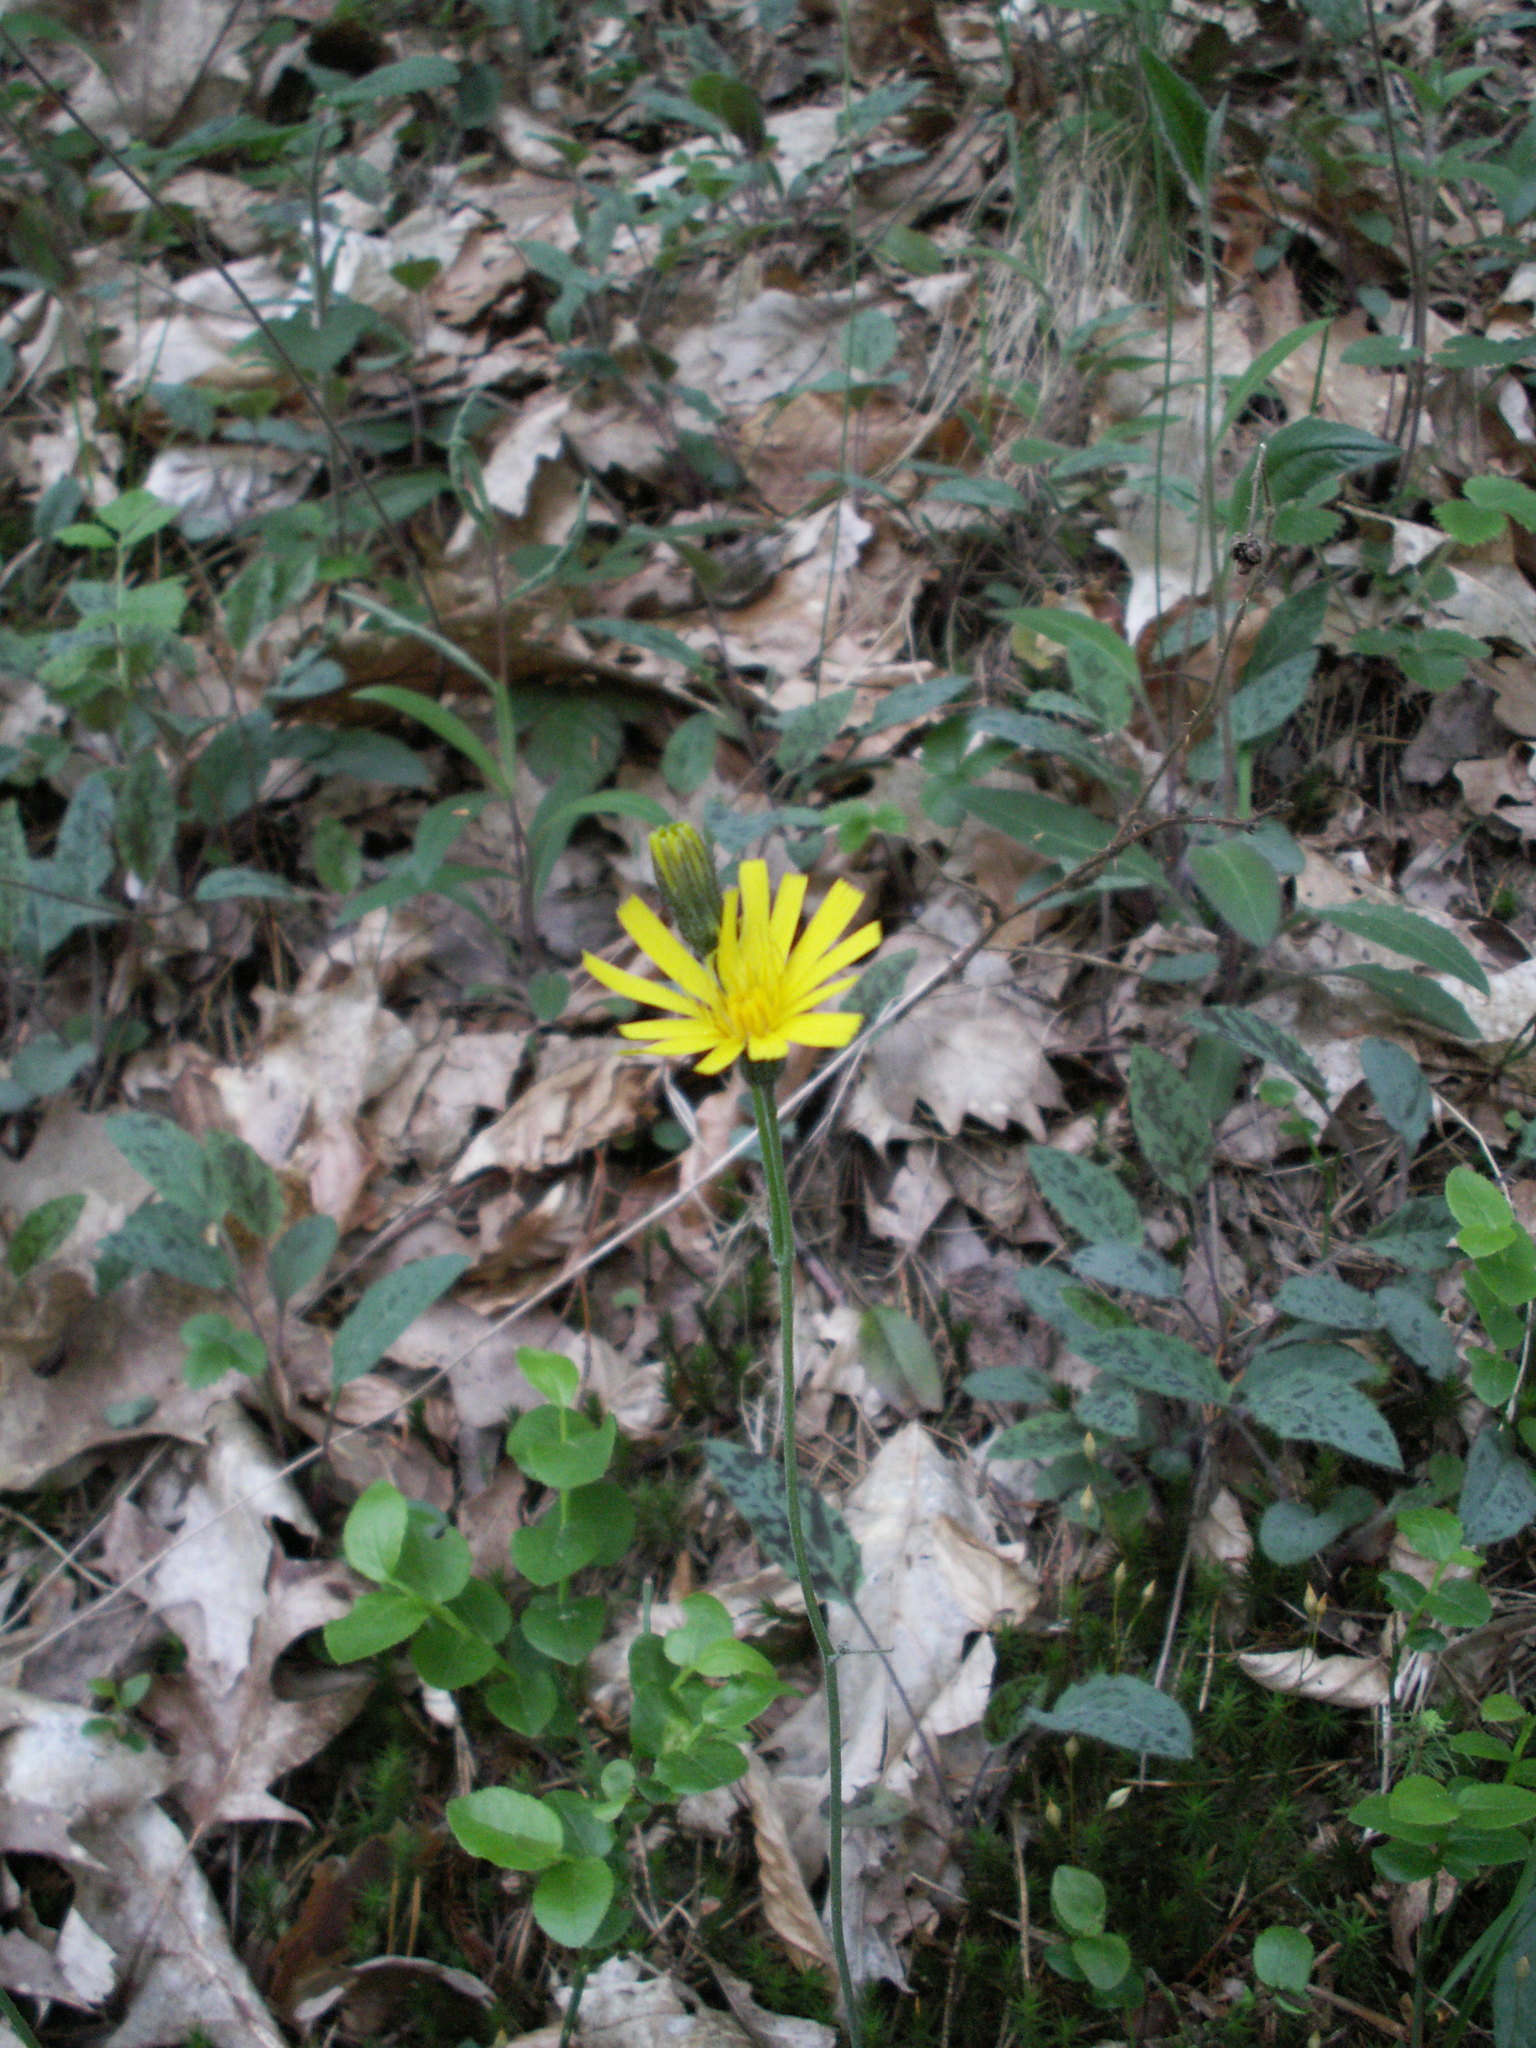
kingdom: Plantae
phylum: Tracheophyta
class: Magnoliopsida
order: Asterales
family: Asteraceae
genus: Hieracium
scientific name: Hieracium maculatum
